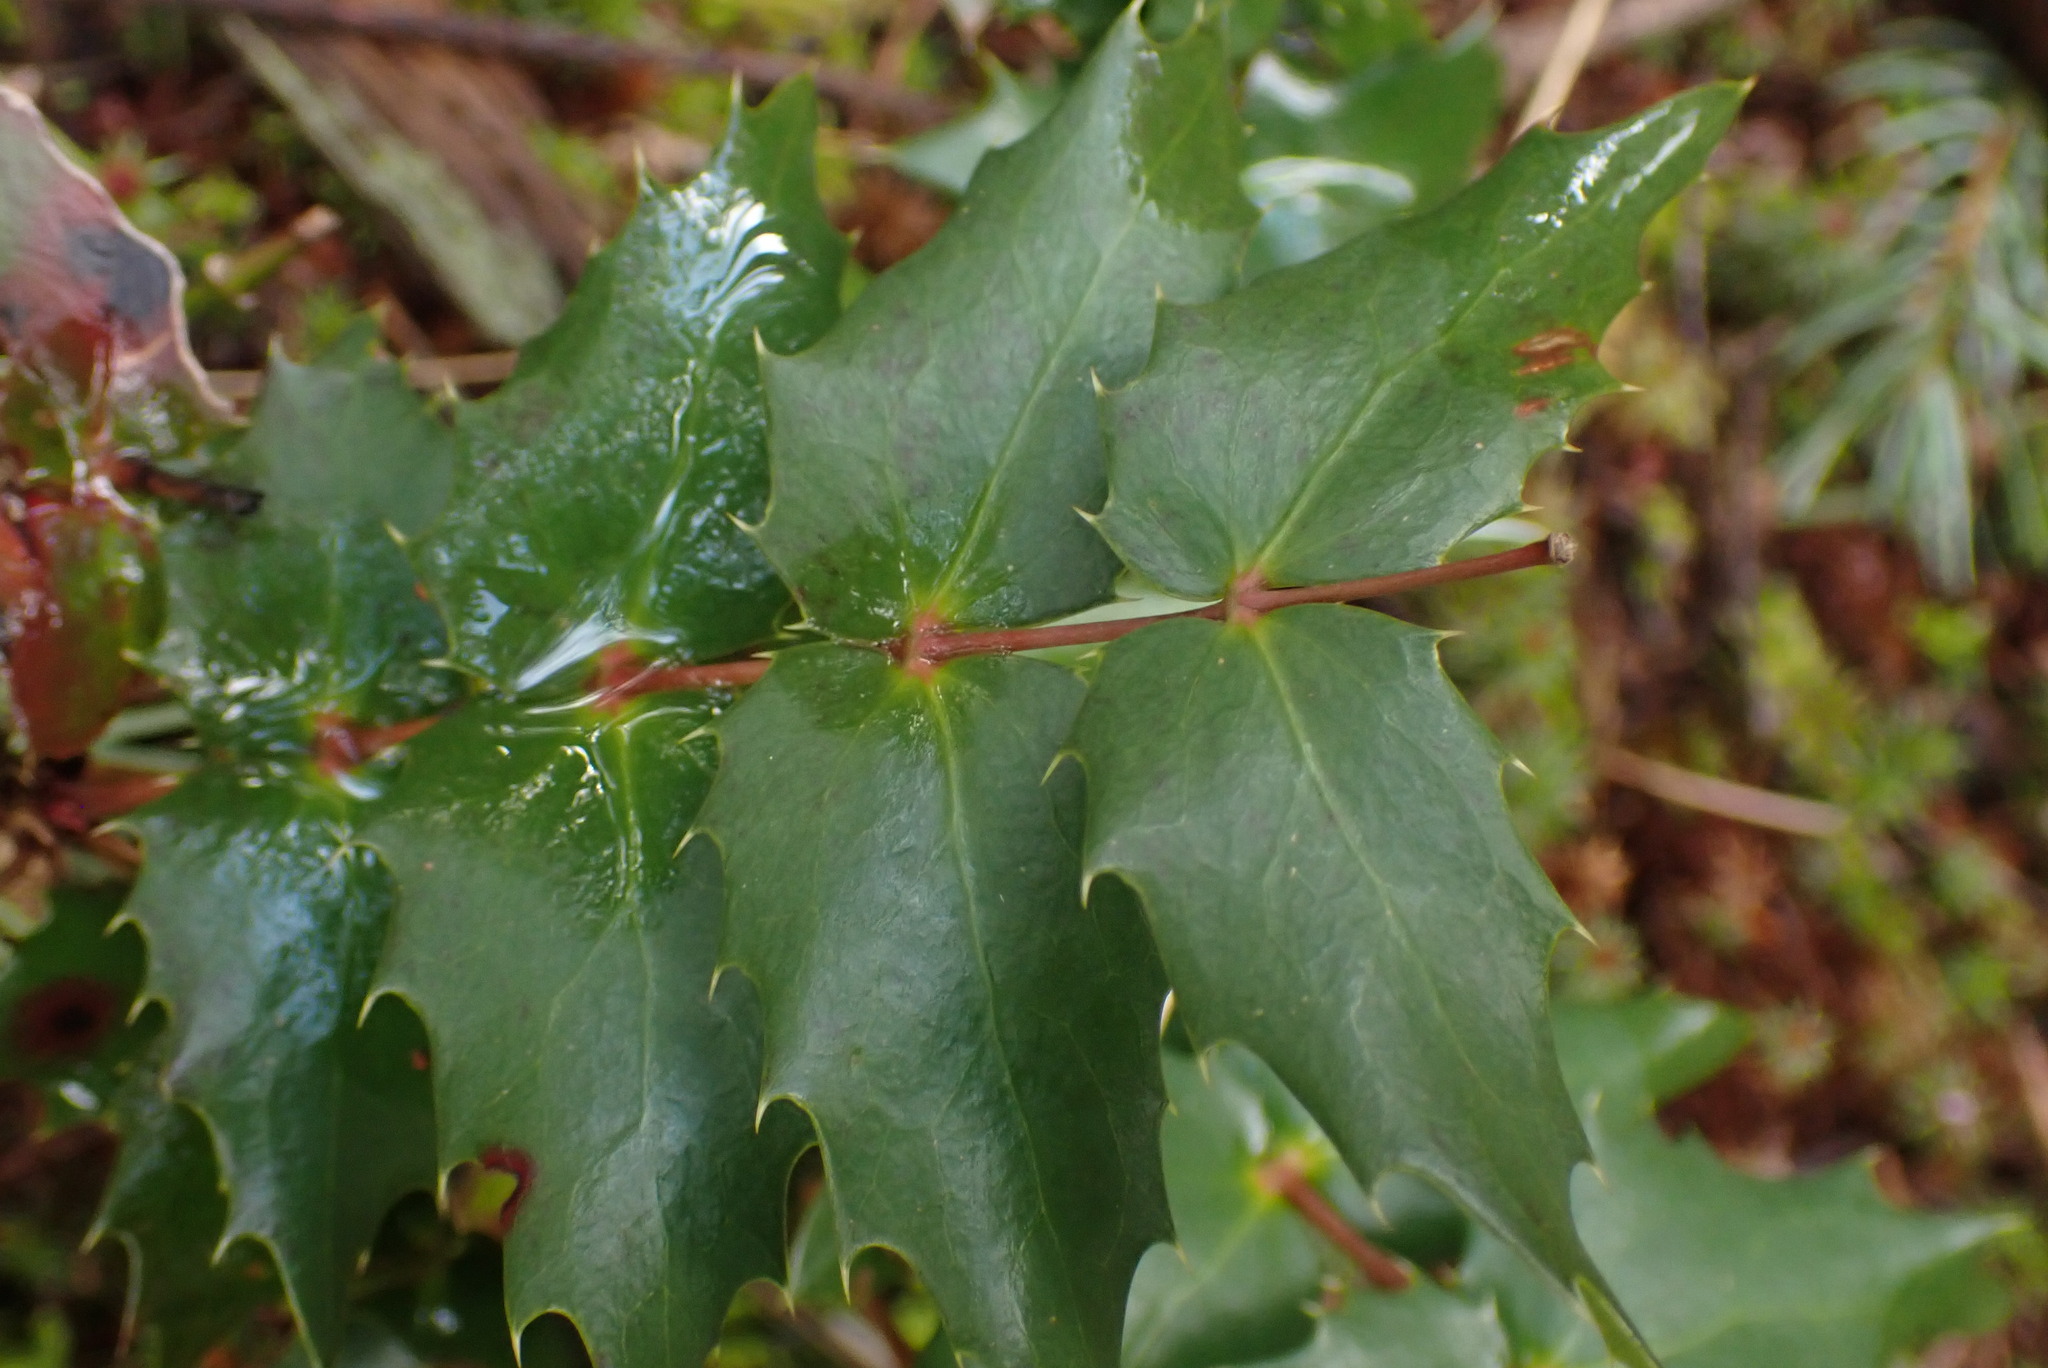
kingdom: Plantae
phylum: Tracheophyta
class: Magnoliopsida
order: Ranunculales
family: Berberidaceae
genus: Mahonia
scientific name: Mahonia nervosa
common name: Cascade oregon-grape
